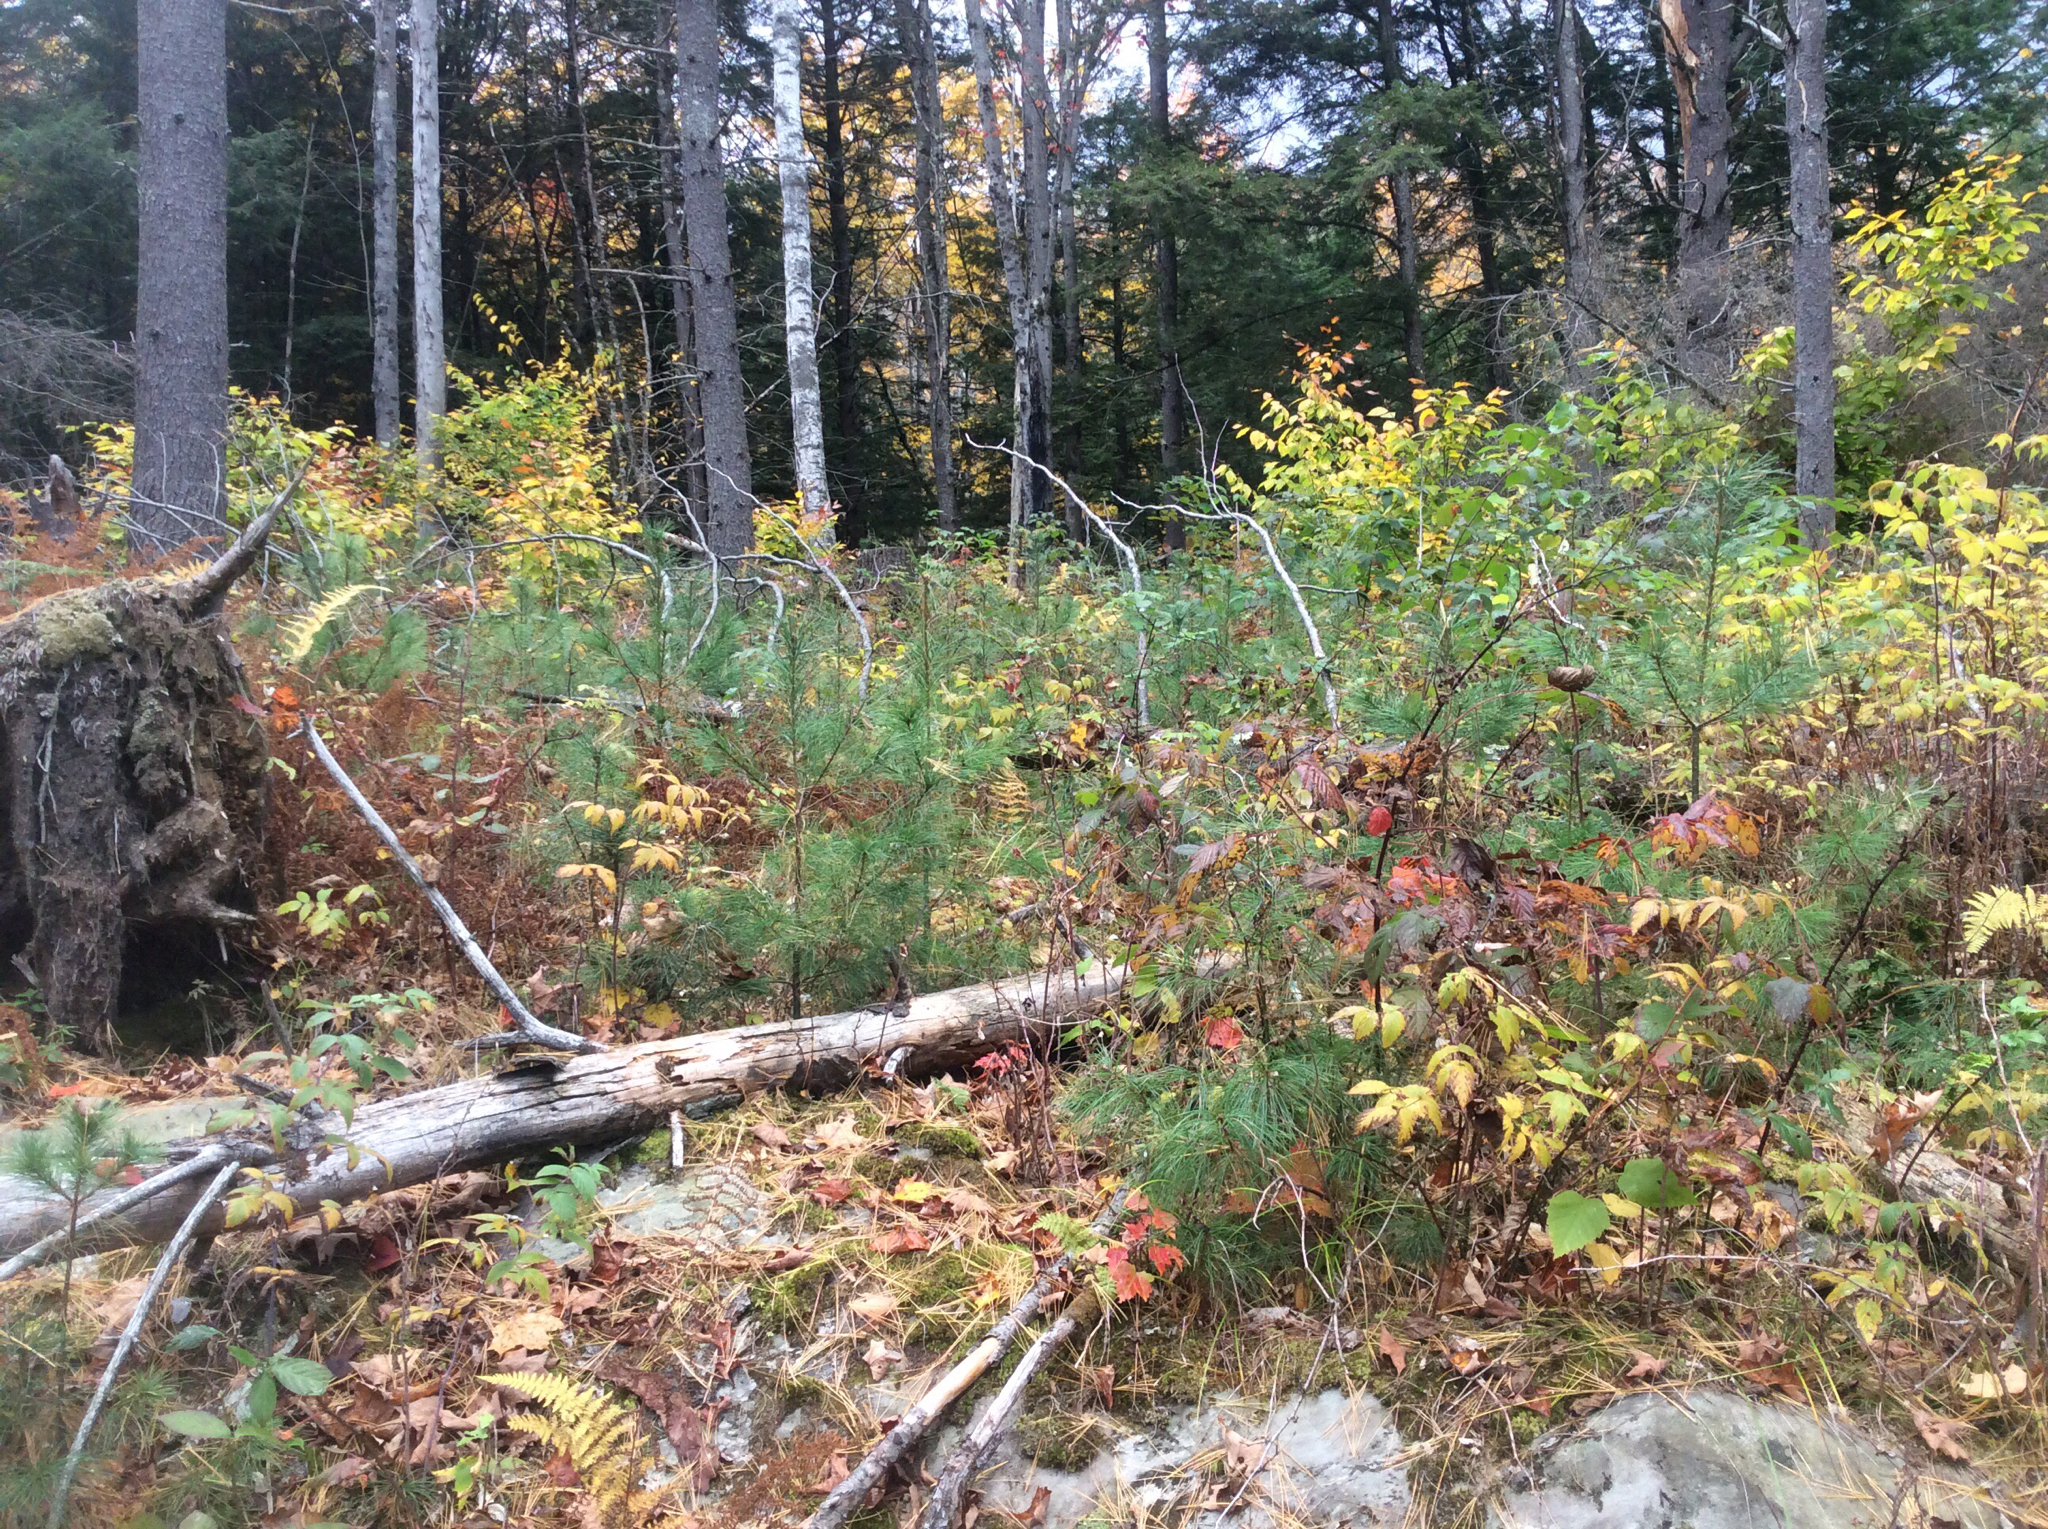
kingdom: Plantae
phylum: Tracheophyta
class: Pinopsida
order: Pinales
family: Pinaceae
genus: Pinus
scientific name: Pinus strobus
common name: Weymouth pine
